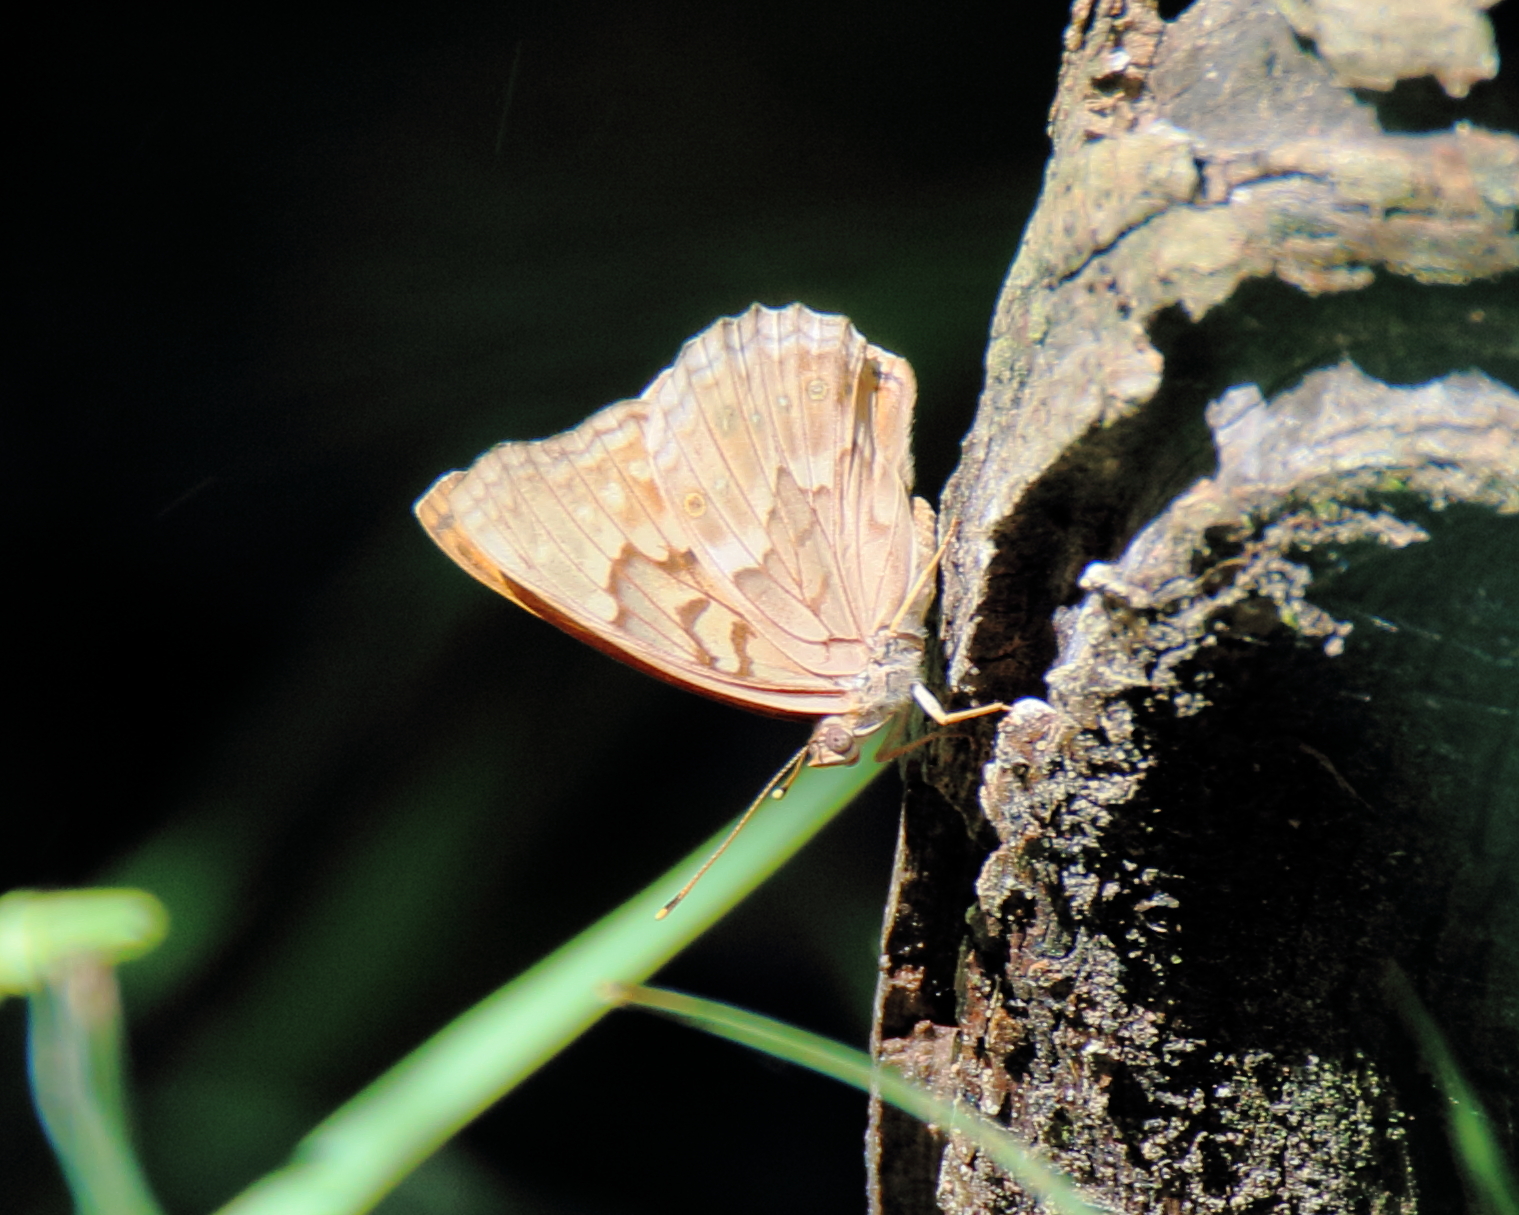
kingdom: Animalia
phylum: Arthropoda
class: Insecta
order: Lepidoptera
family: Nymphalidae
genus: Asterocampa
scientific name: Asterocampa clyton
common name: Tawny emperor
